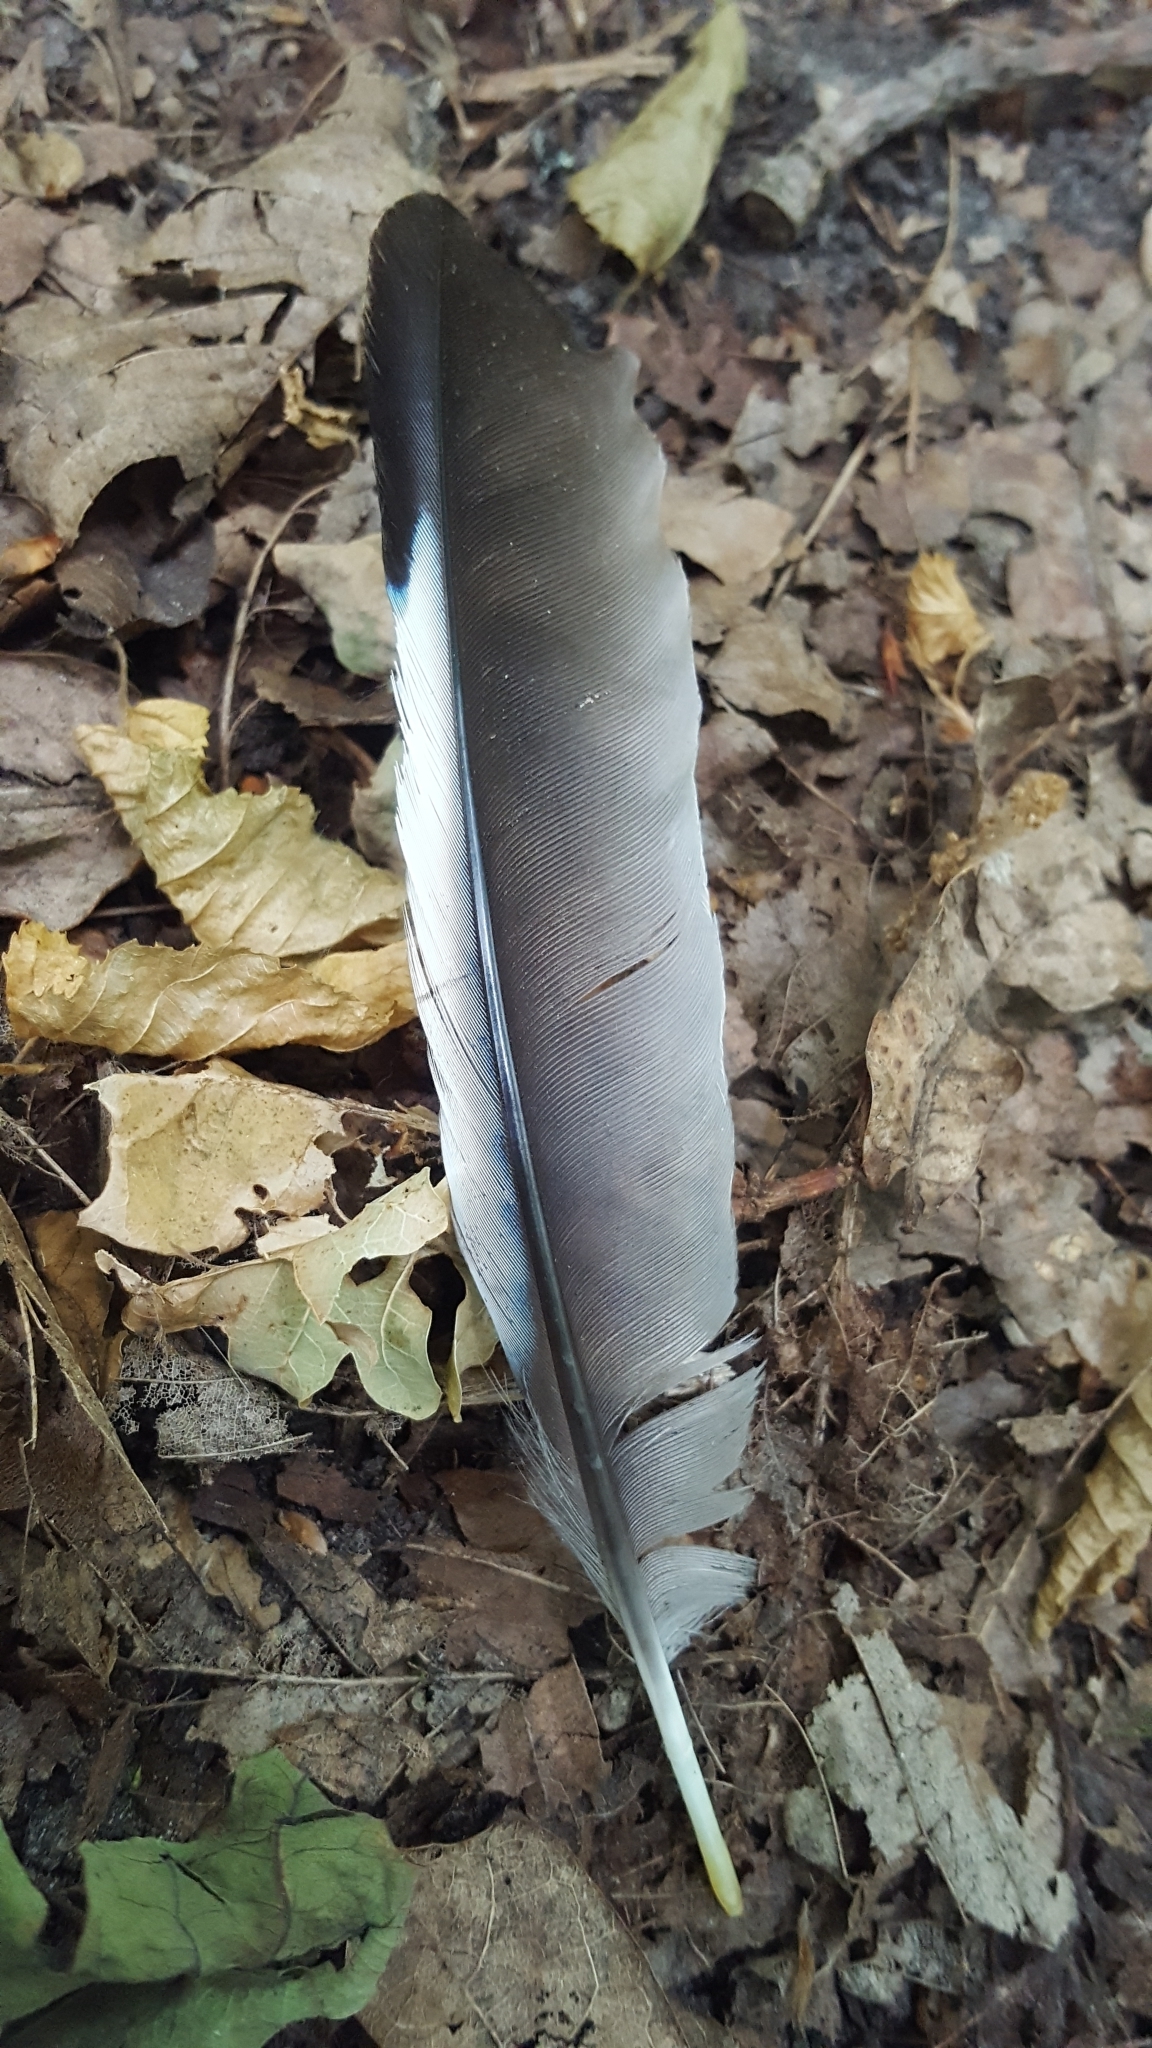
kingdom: Animalia
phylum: Chordata
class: Aves
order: Passeriformes
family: Corvidae
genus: Garrulus
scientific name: Garrulus glandarius
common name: Eurasian jay
